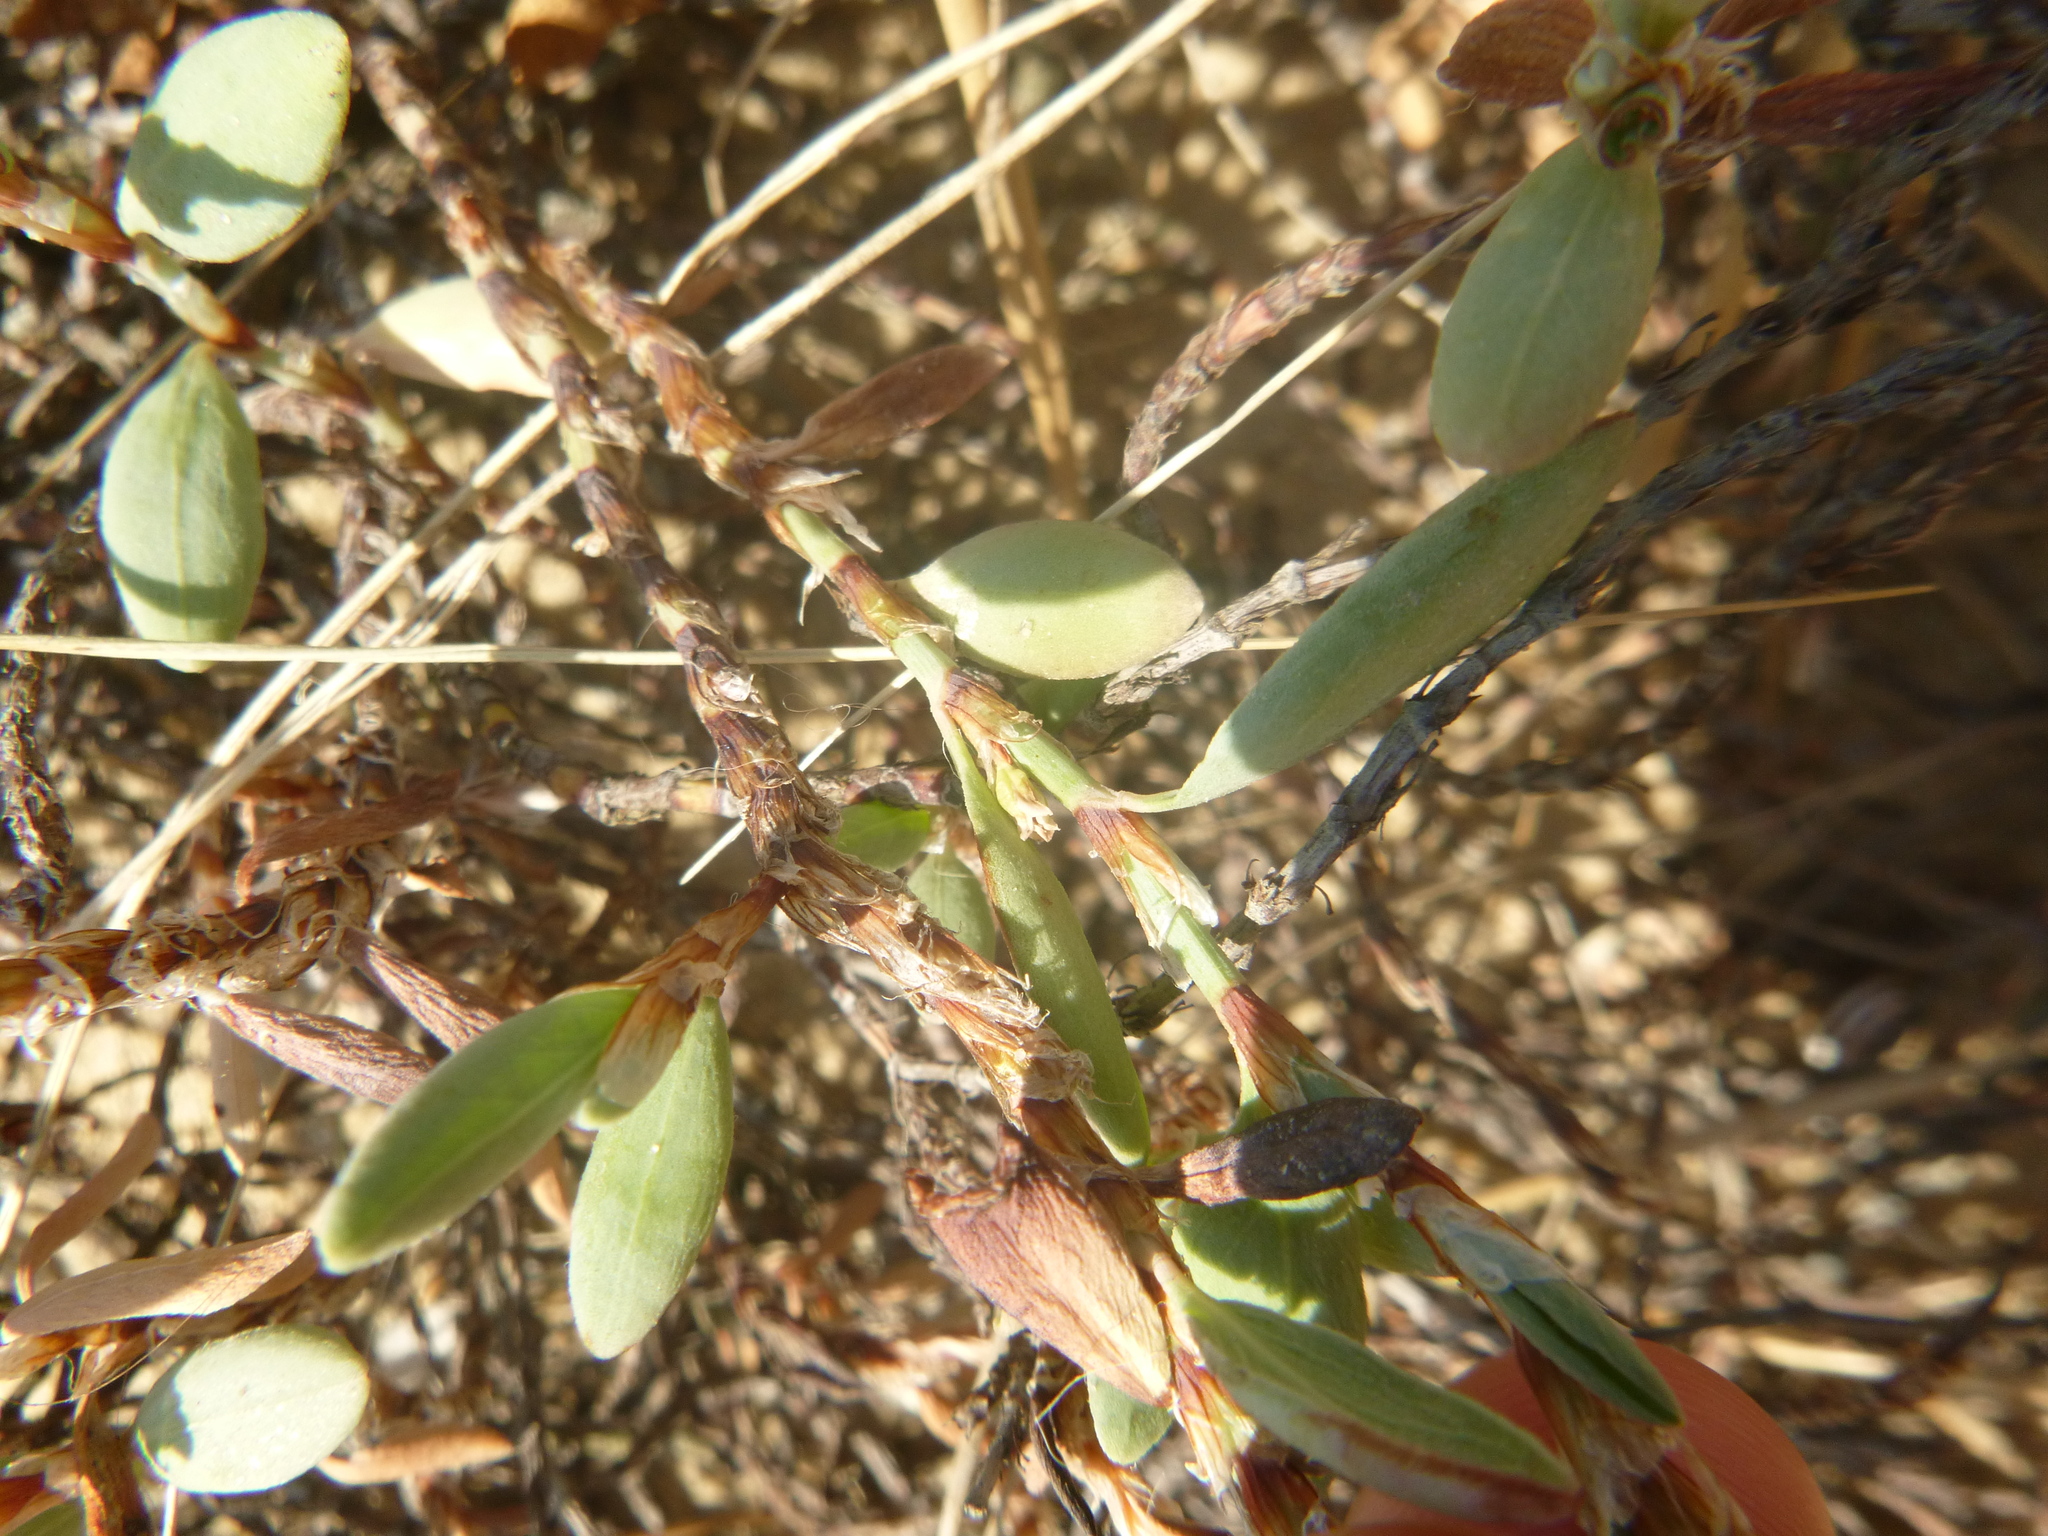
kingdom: Plantae
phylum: Tracheophyta
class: Magnoliopsida
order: Caryophyllales
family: Polygonaceae
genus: Polygonum
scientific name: Polygonum maritimum
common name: Sea knotgrass
